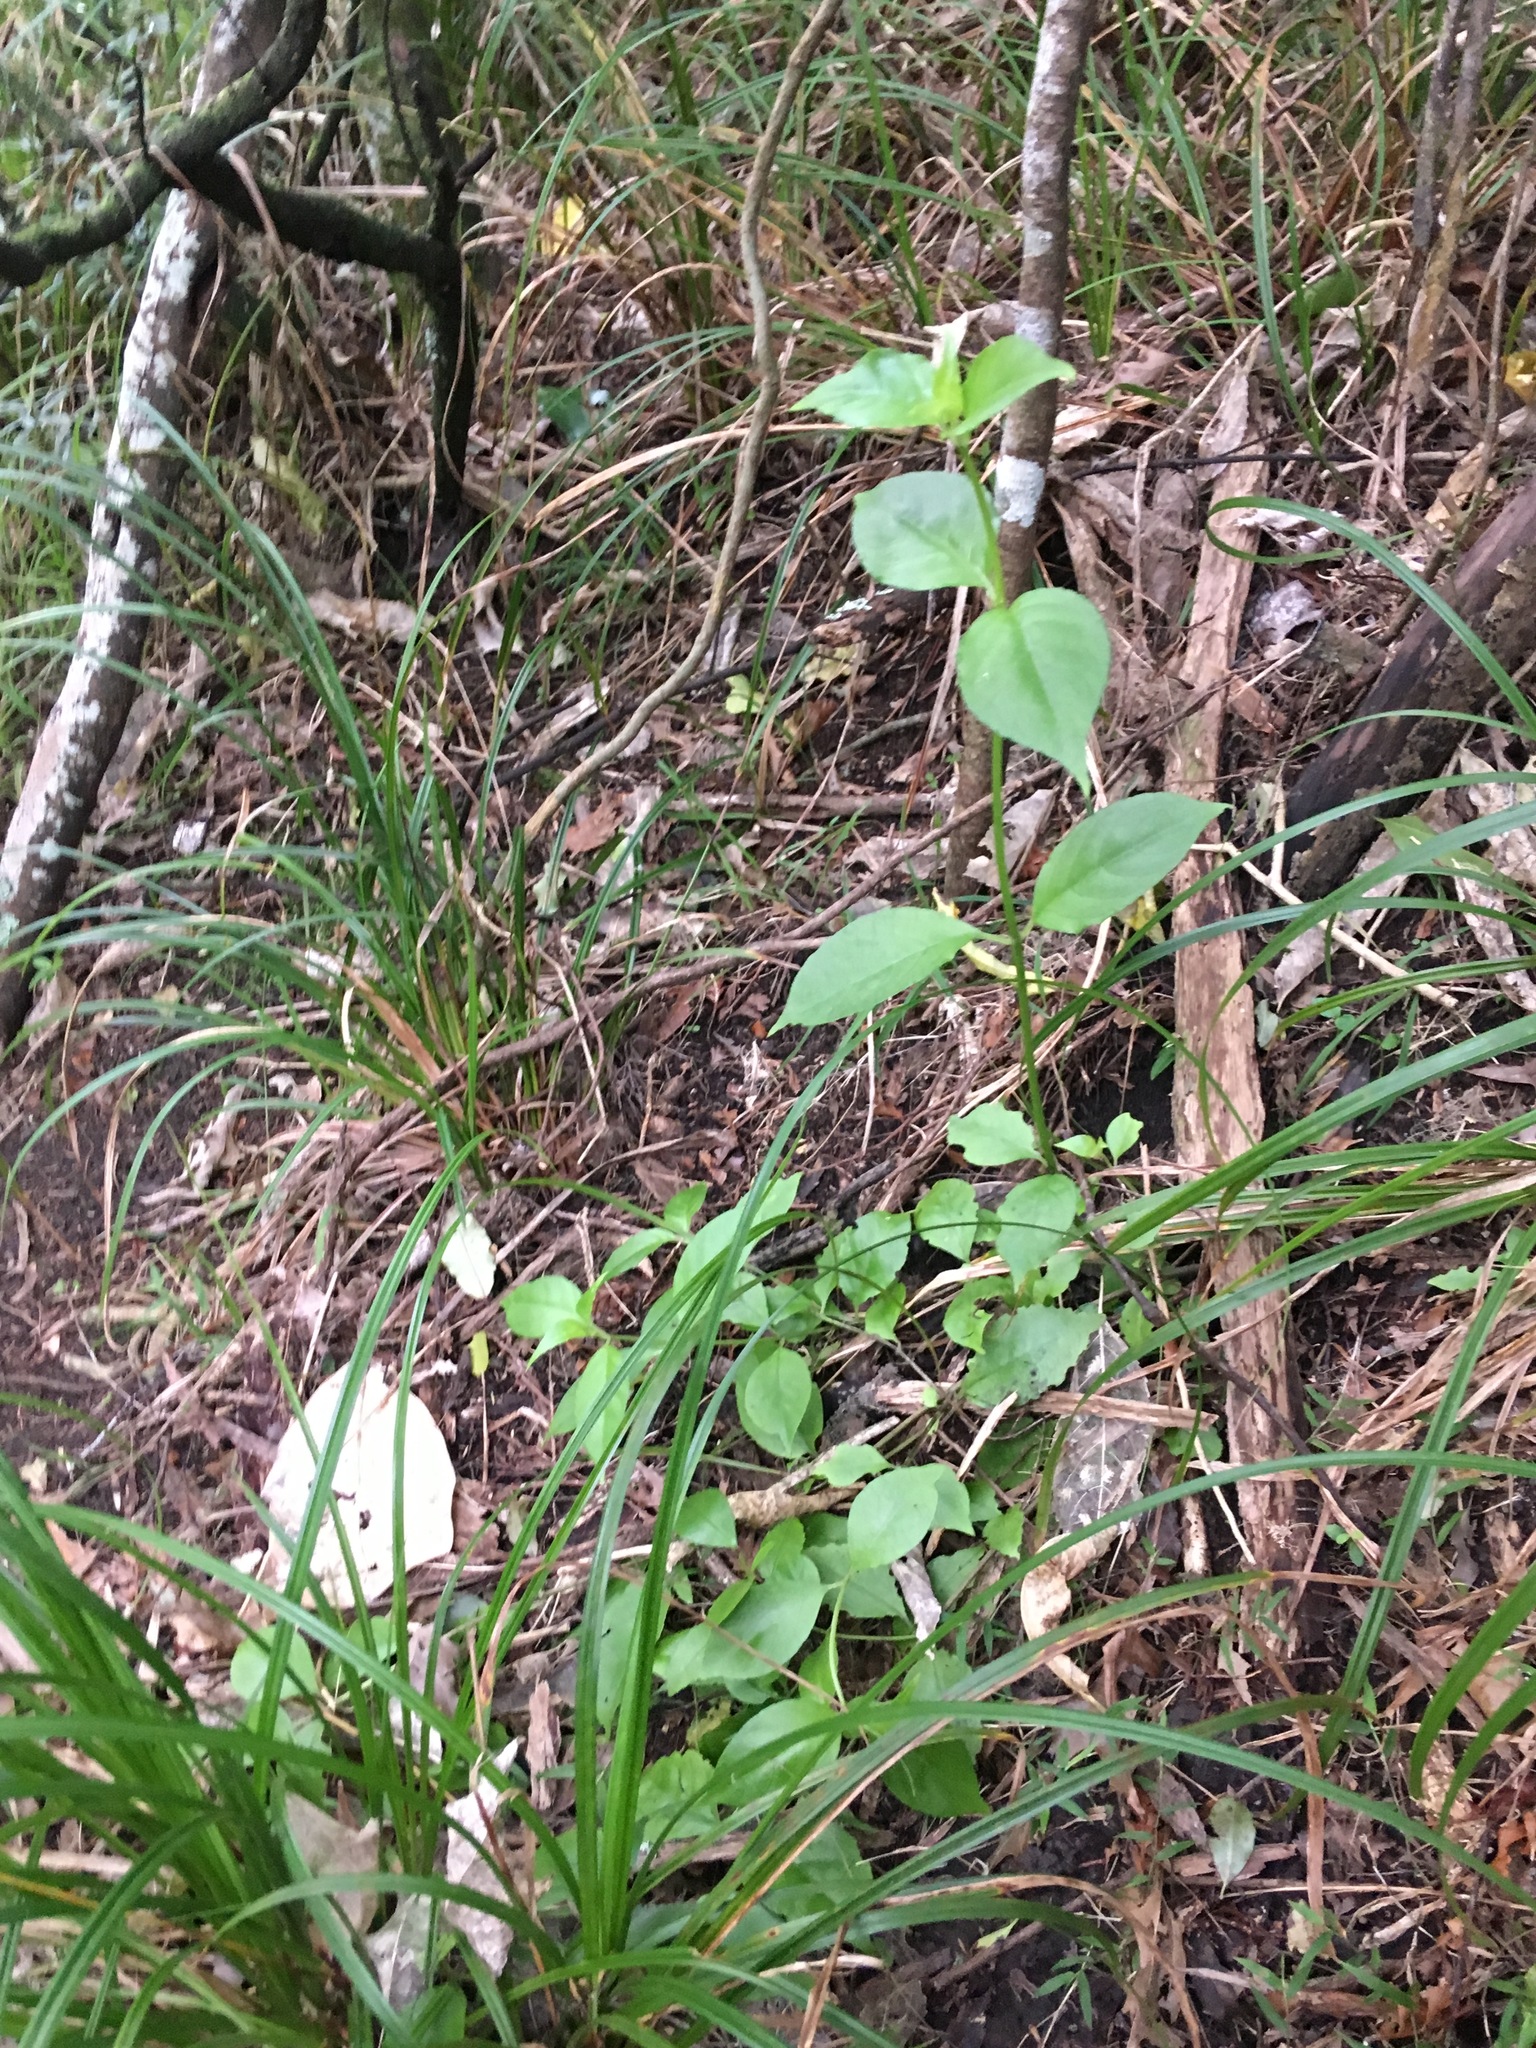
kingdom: Plantae
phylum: Tracheophyta
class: Magnoliopsida
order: Gentianales
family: Loganiaceae
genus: Geniostoma
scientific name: Geniostoma ligustrifolium
